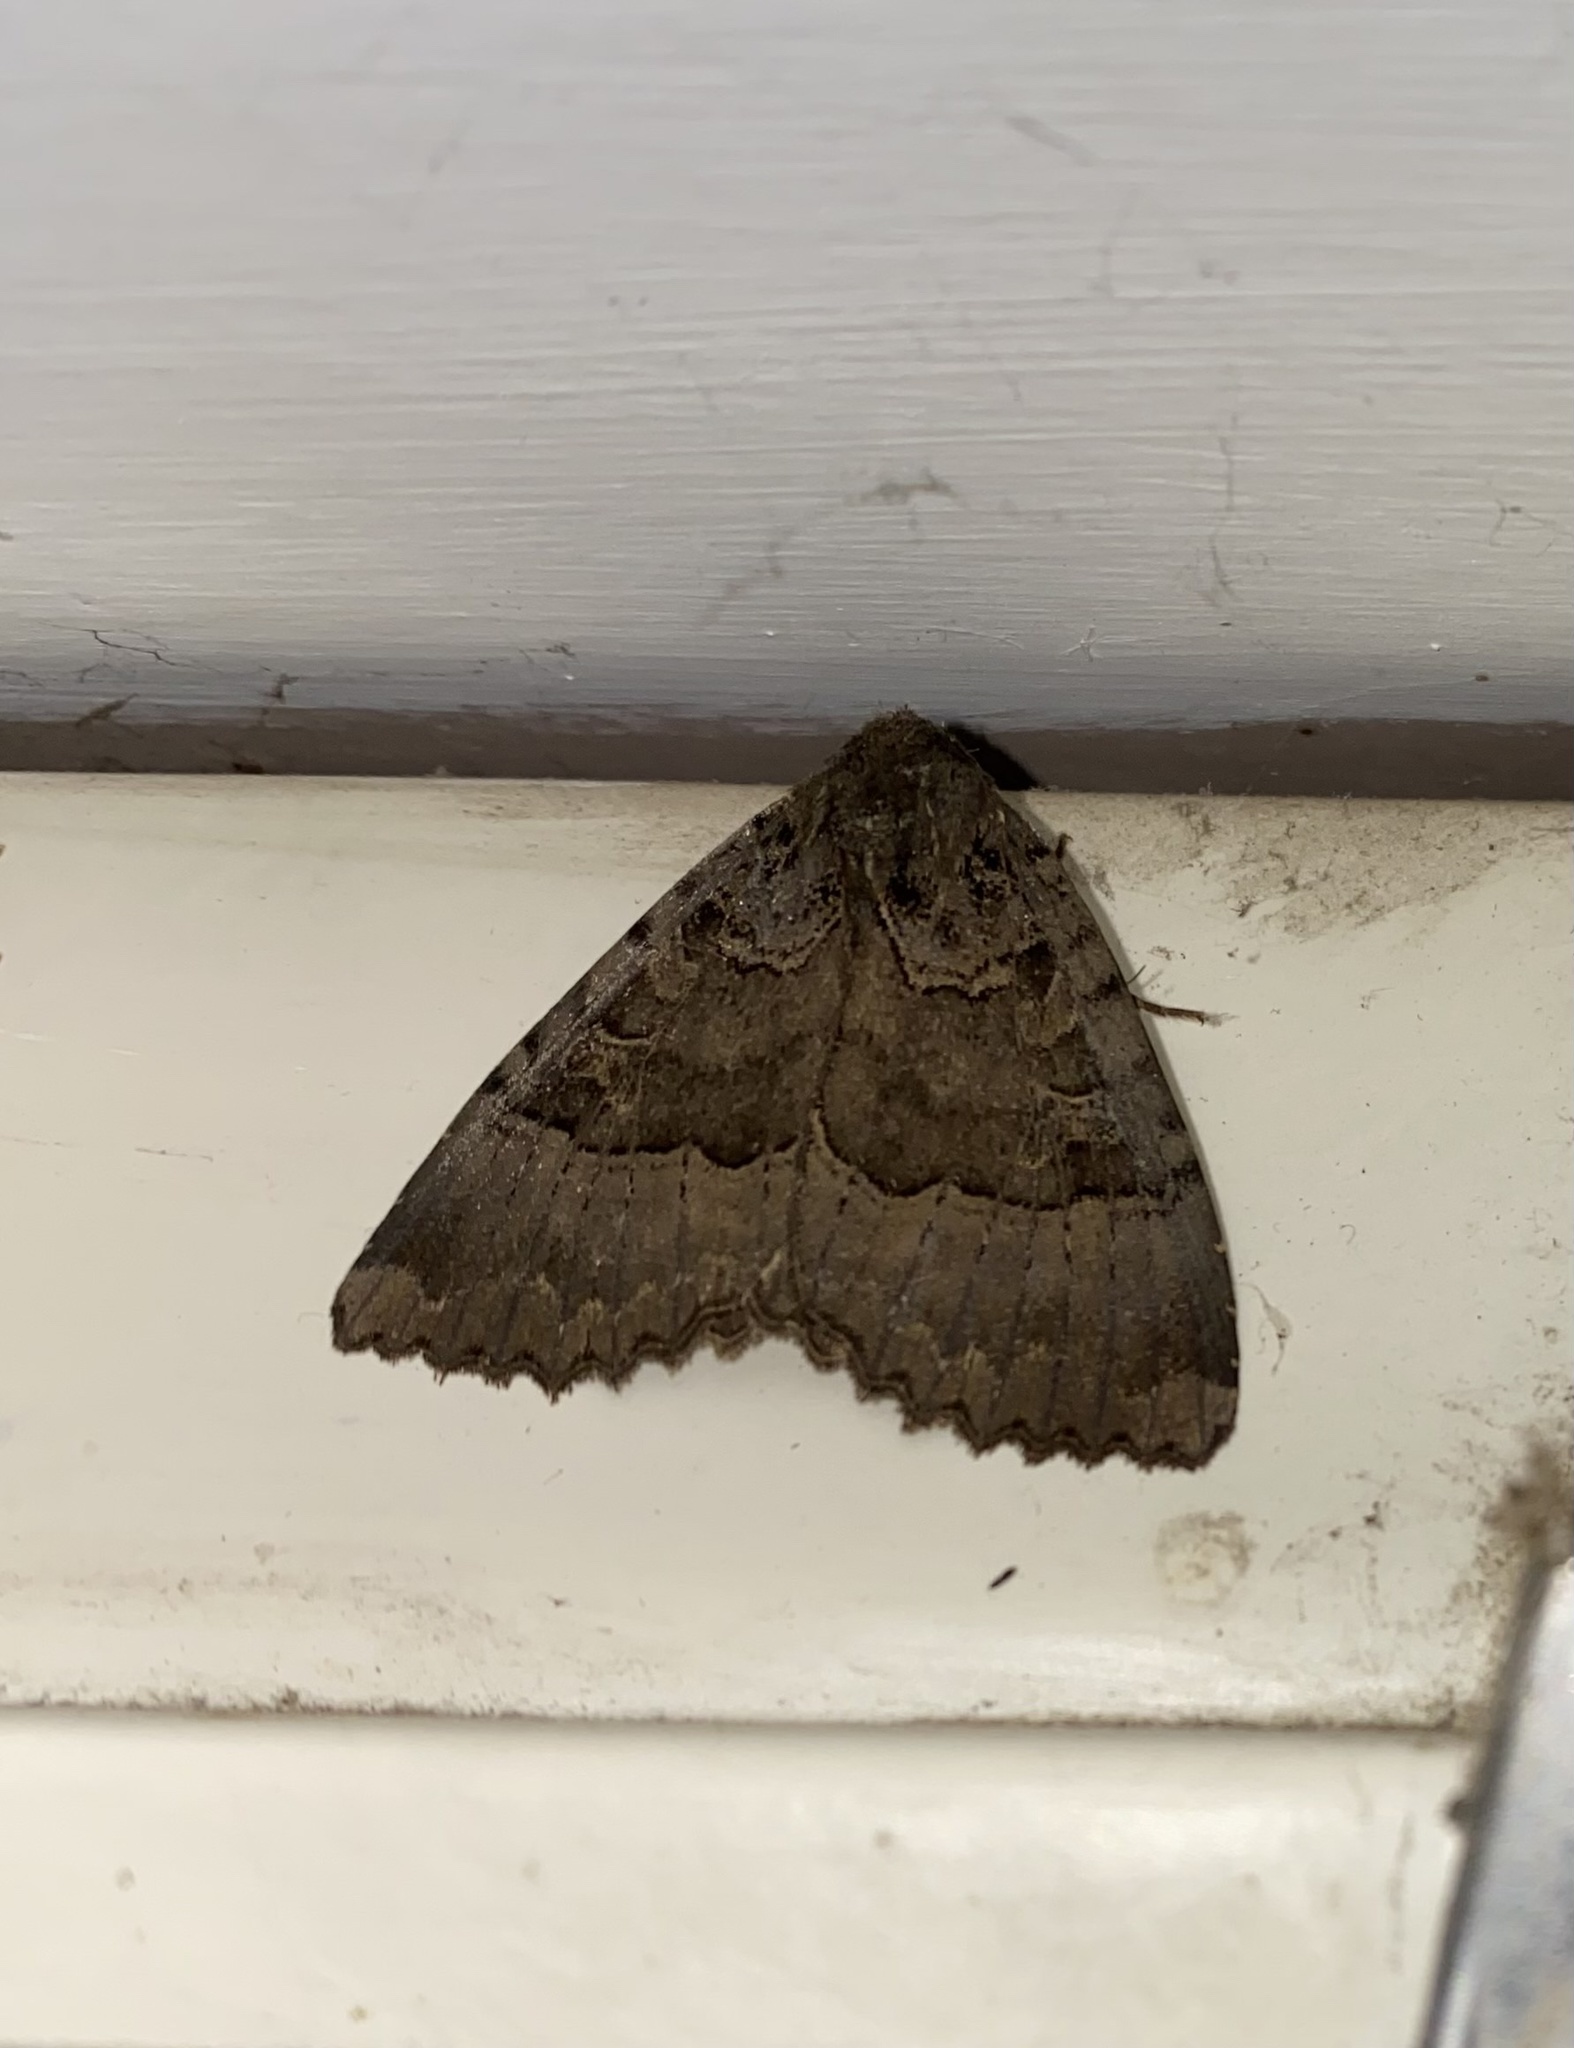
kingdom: Animalia
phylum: Arthropoda
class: Insecta
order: Lepidoptera
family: Noctuidae
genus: Mormo
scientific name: Mormo maura
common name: Old lady
